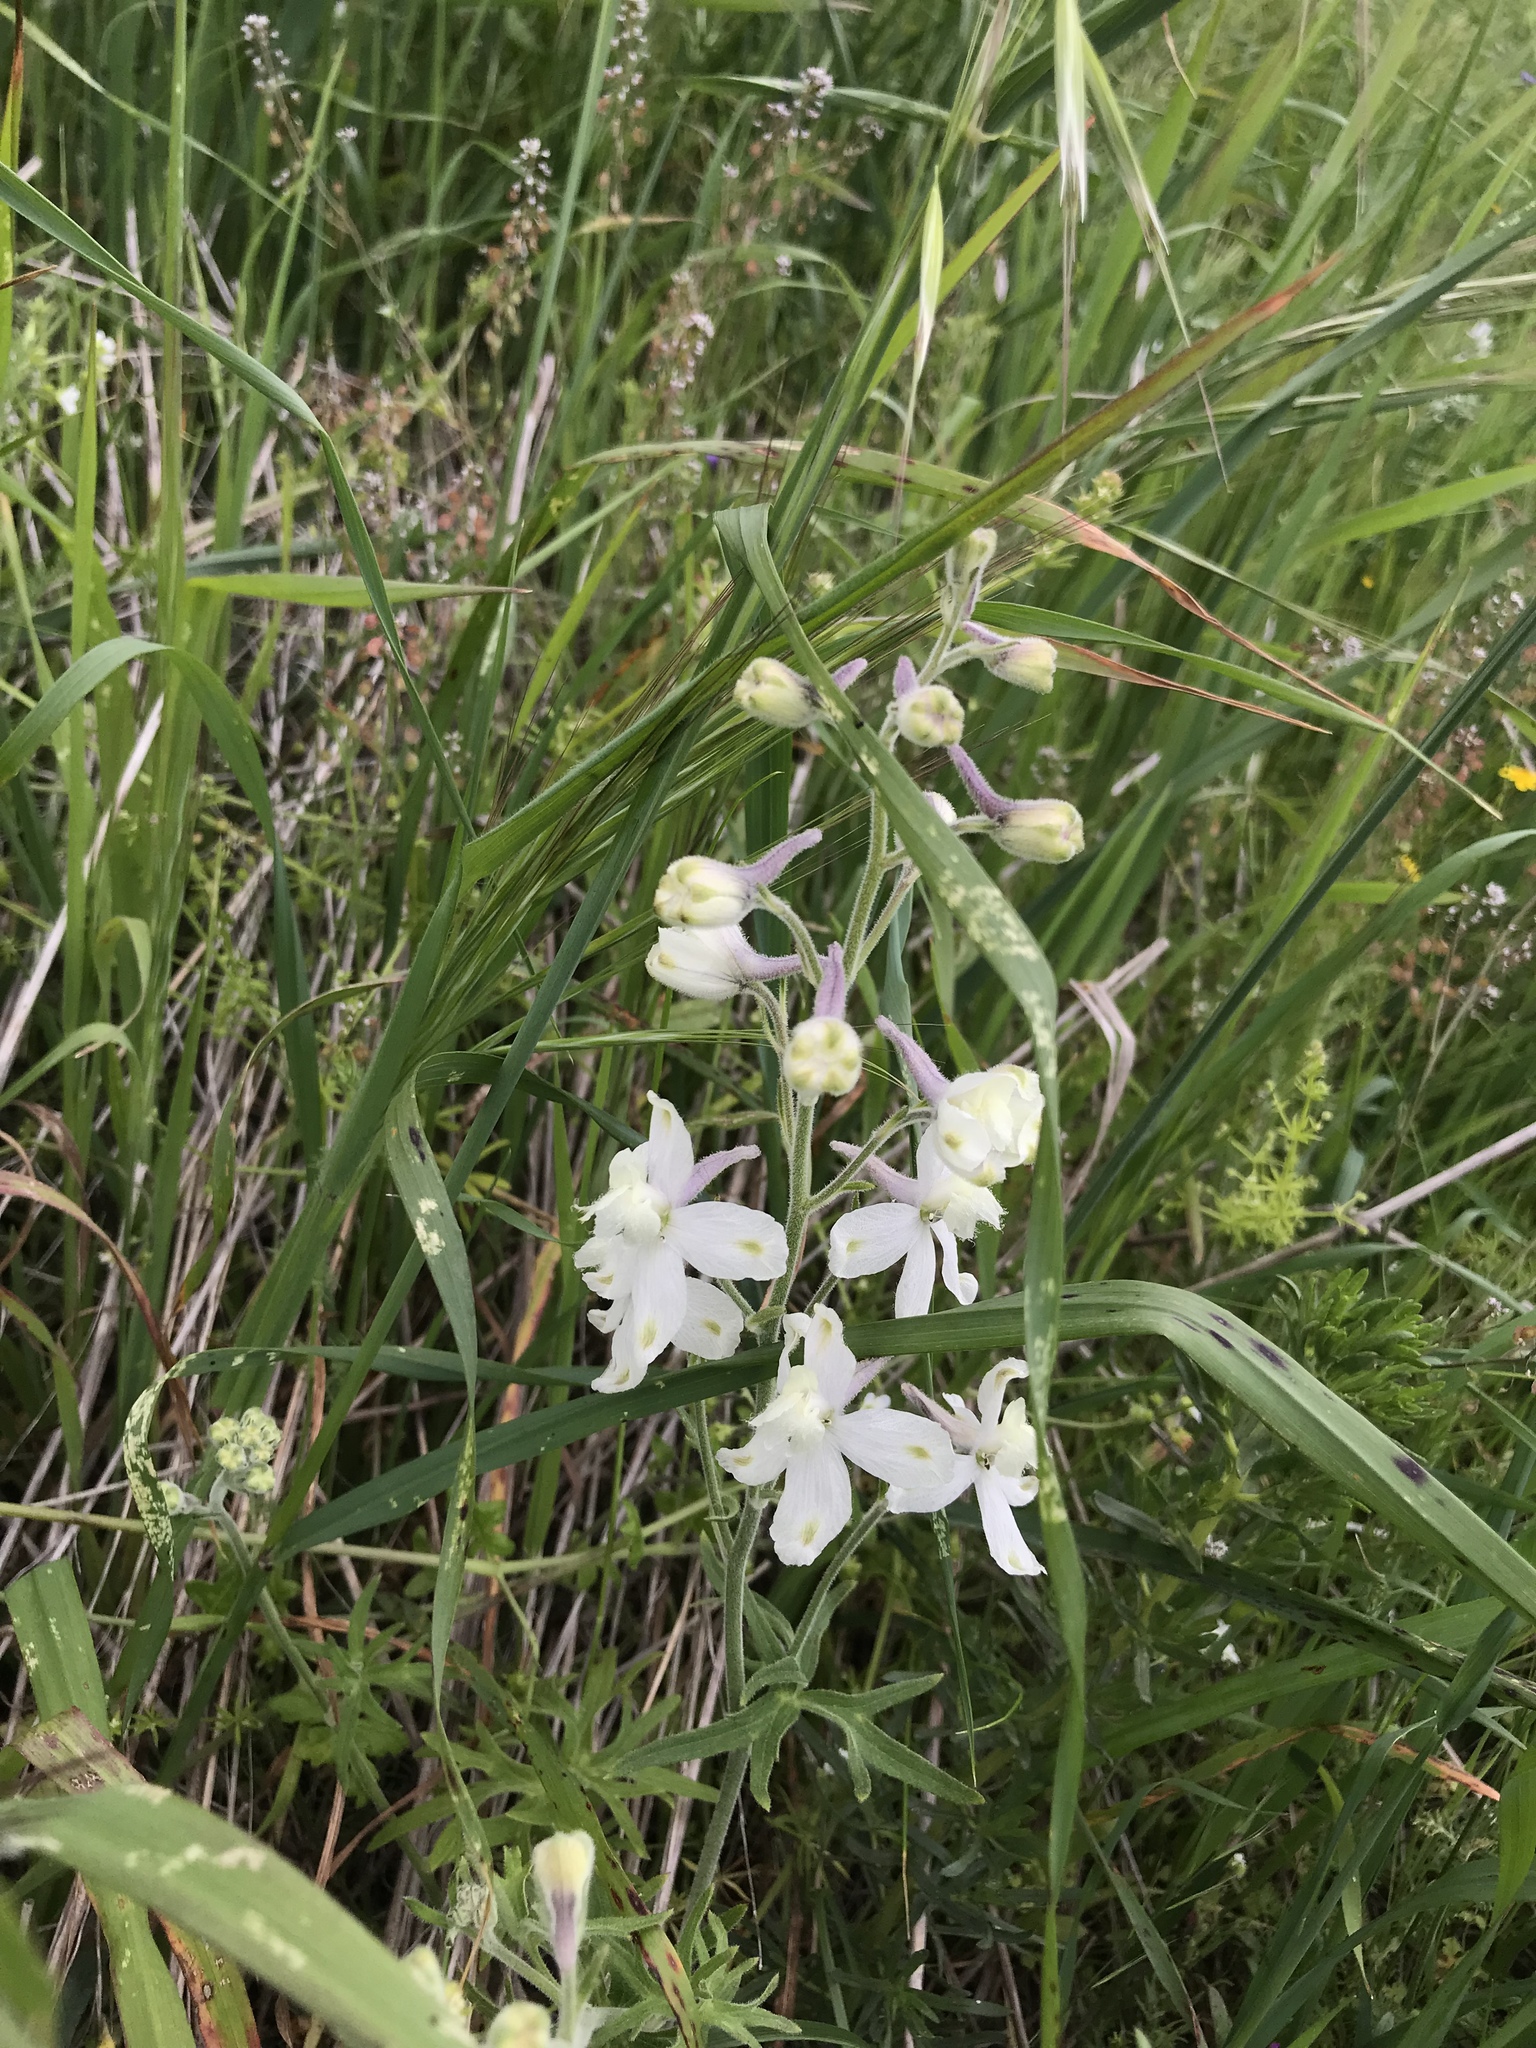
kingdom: Plantae
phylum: Tracheophyta
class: Magnoliopsida
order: Ranunculales
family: Ranunculaceae
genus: Delphinium
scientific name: Delphinium variegatum
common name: Royal larkspur
